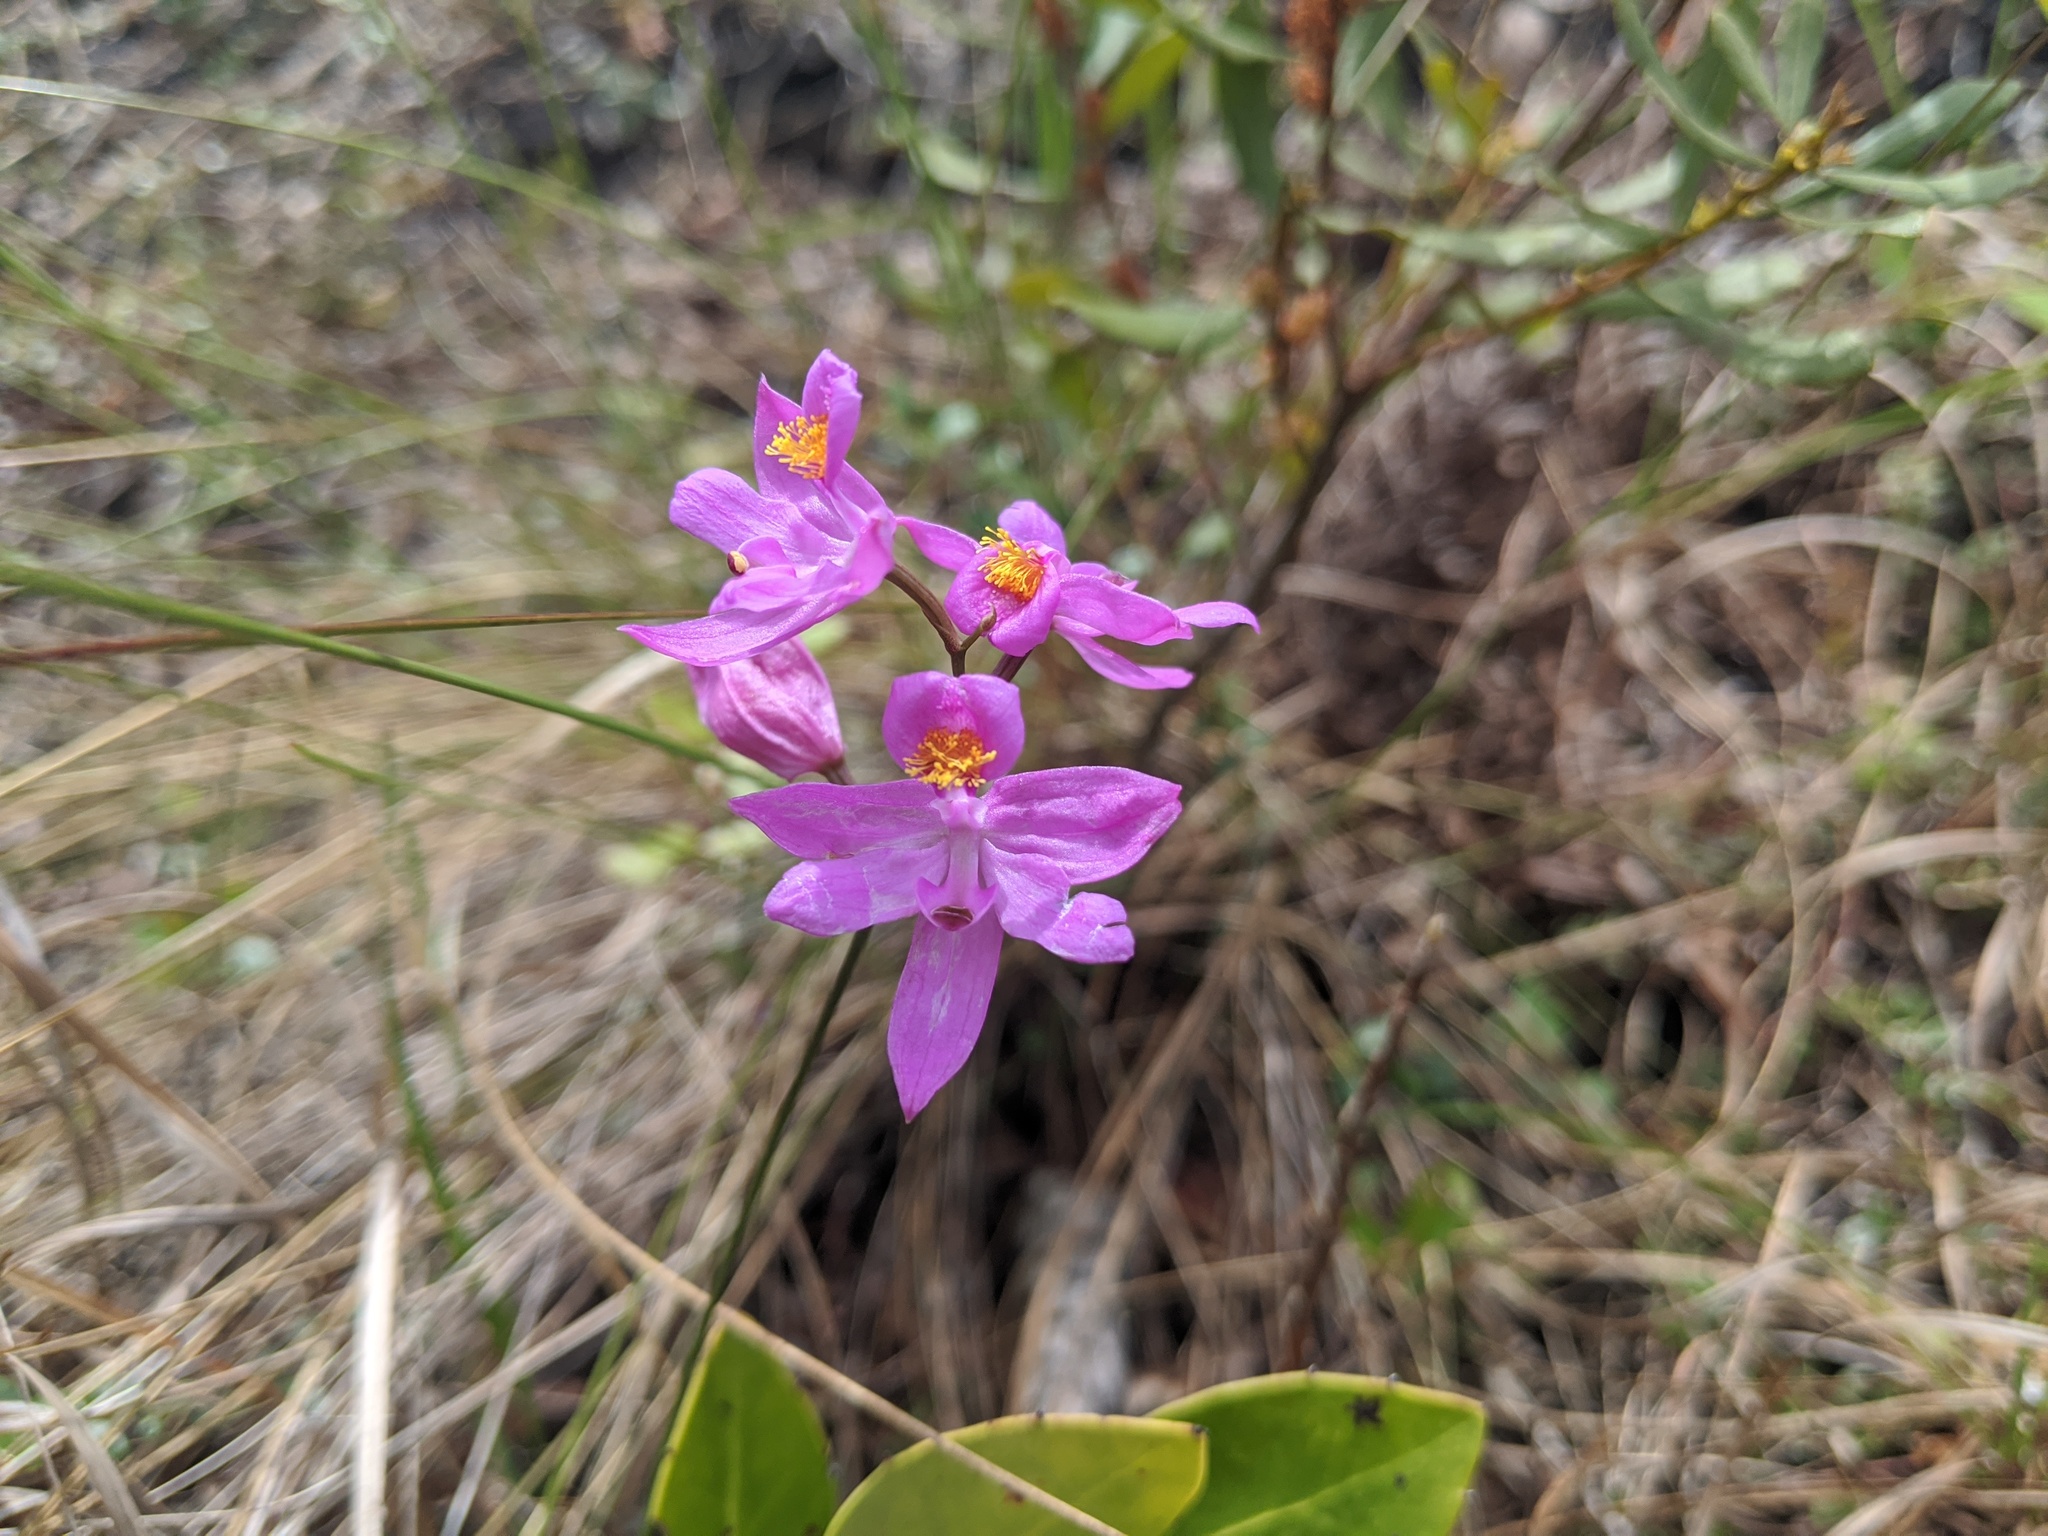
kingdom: Plantae
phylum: Tracheophyta
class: Liliopsida
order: Asparagales
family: Orchidaceae
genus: Calopogon
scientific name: Calopogon barbatus
